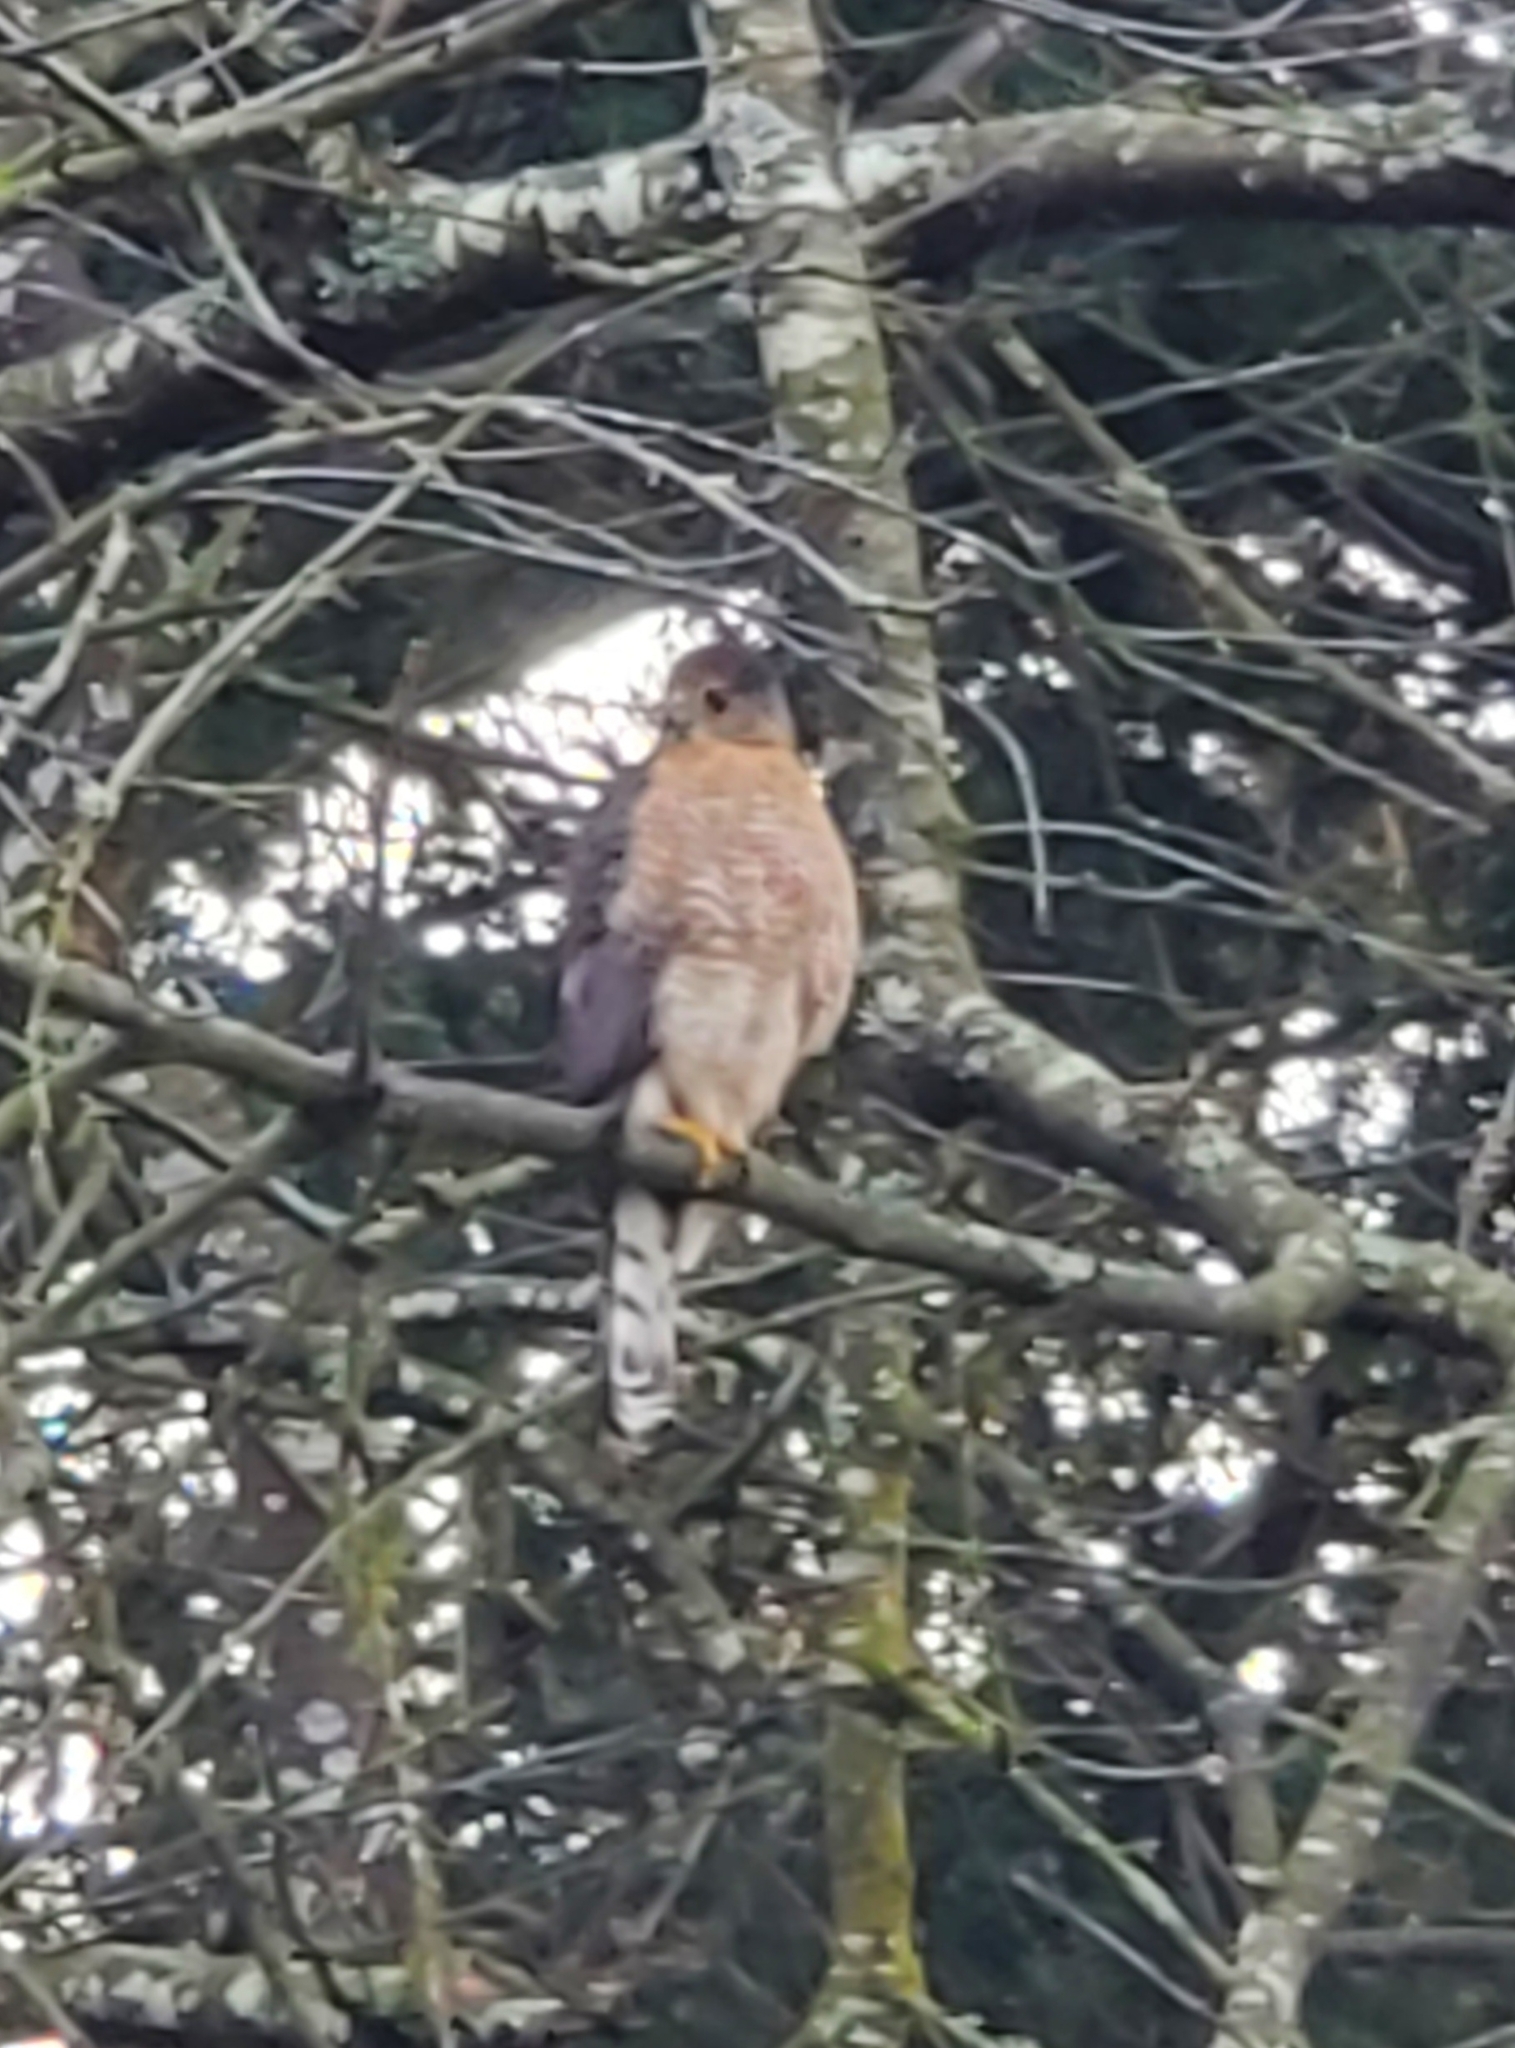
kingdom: Animalia
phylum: Chordata
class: Aves
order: Accipitriformes
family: Accipitridae
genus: Accipiter
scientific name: Accipiter cooperii
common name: Cooper's hawk
